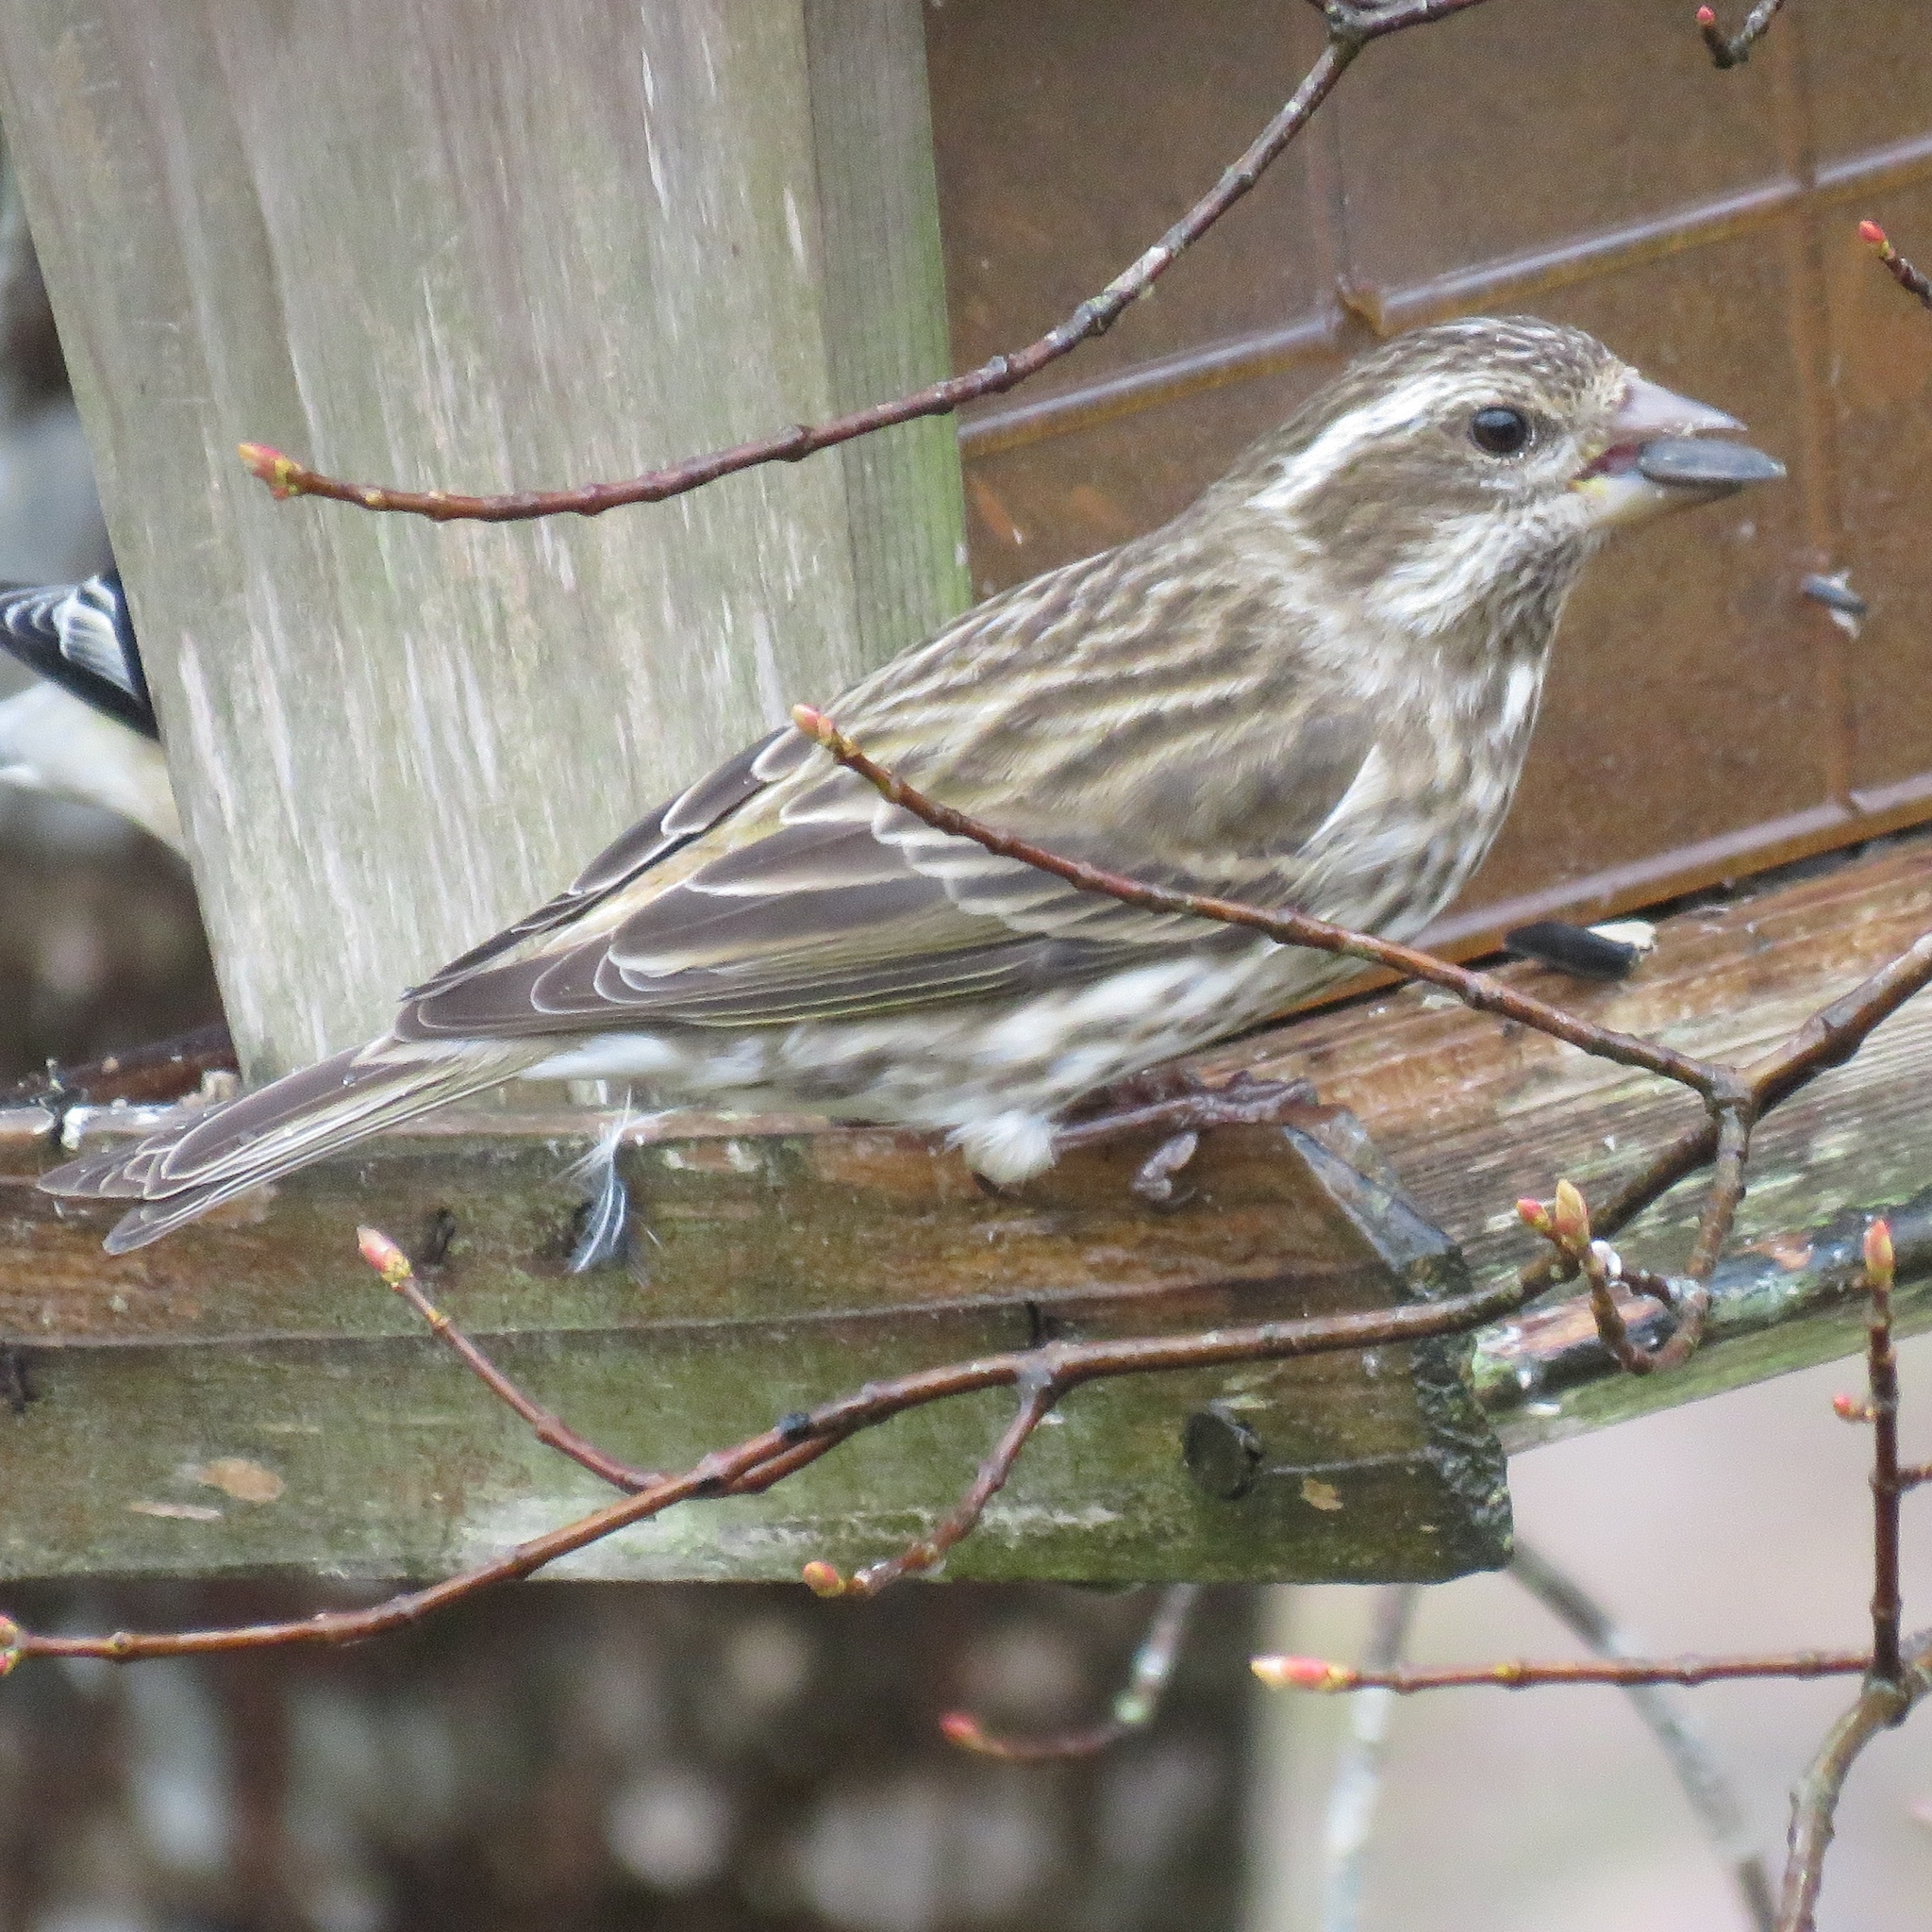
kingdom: Animalia
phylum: Chordata
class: Aves
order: Passeriformes
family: Fringillidae
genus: Haemorhous
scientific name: Haemorhous purpureus
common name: Purple finch
